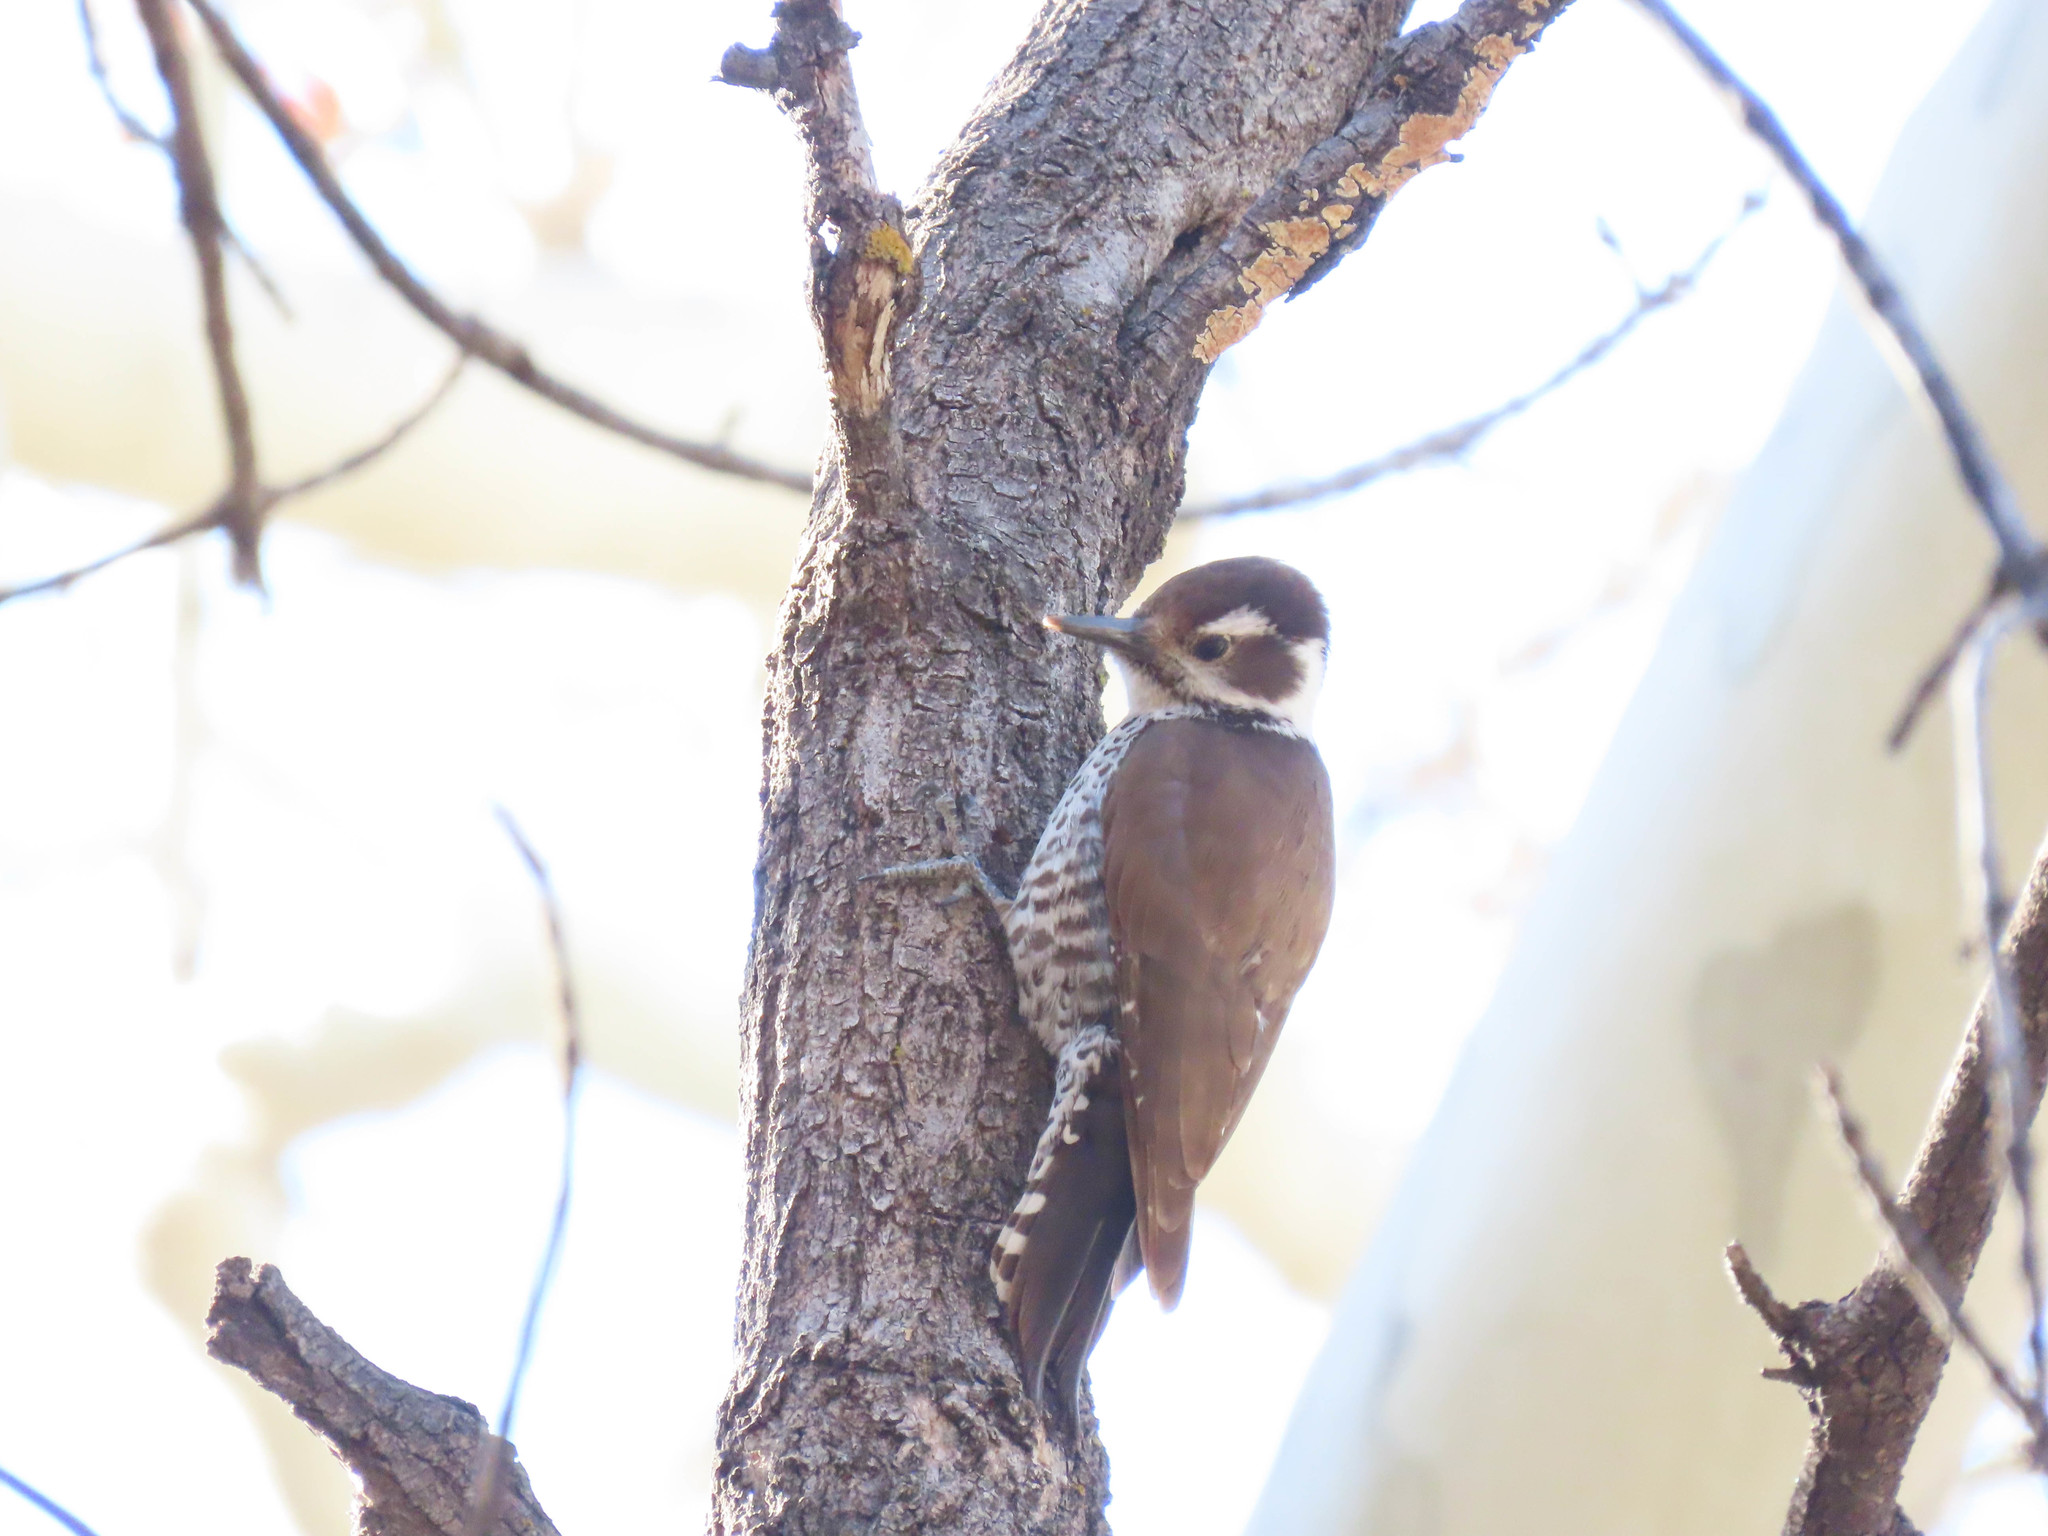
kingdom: Animalia
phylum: Chordata
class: Aves
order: Piciformes
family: Picidae
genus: Leuconotopicus
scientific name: Leuconotopicus arizonae
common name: Arizona woodpecker
